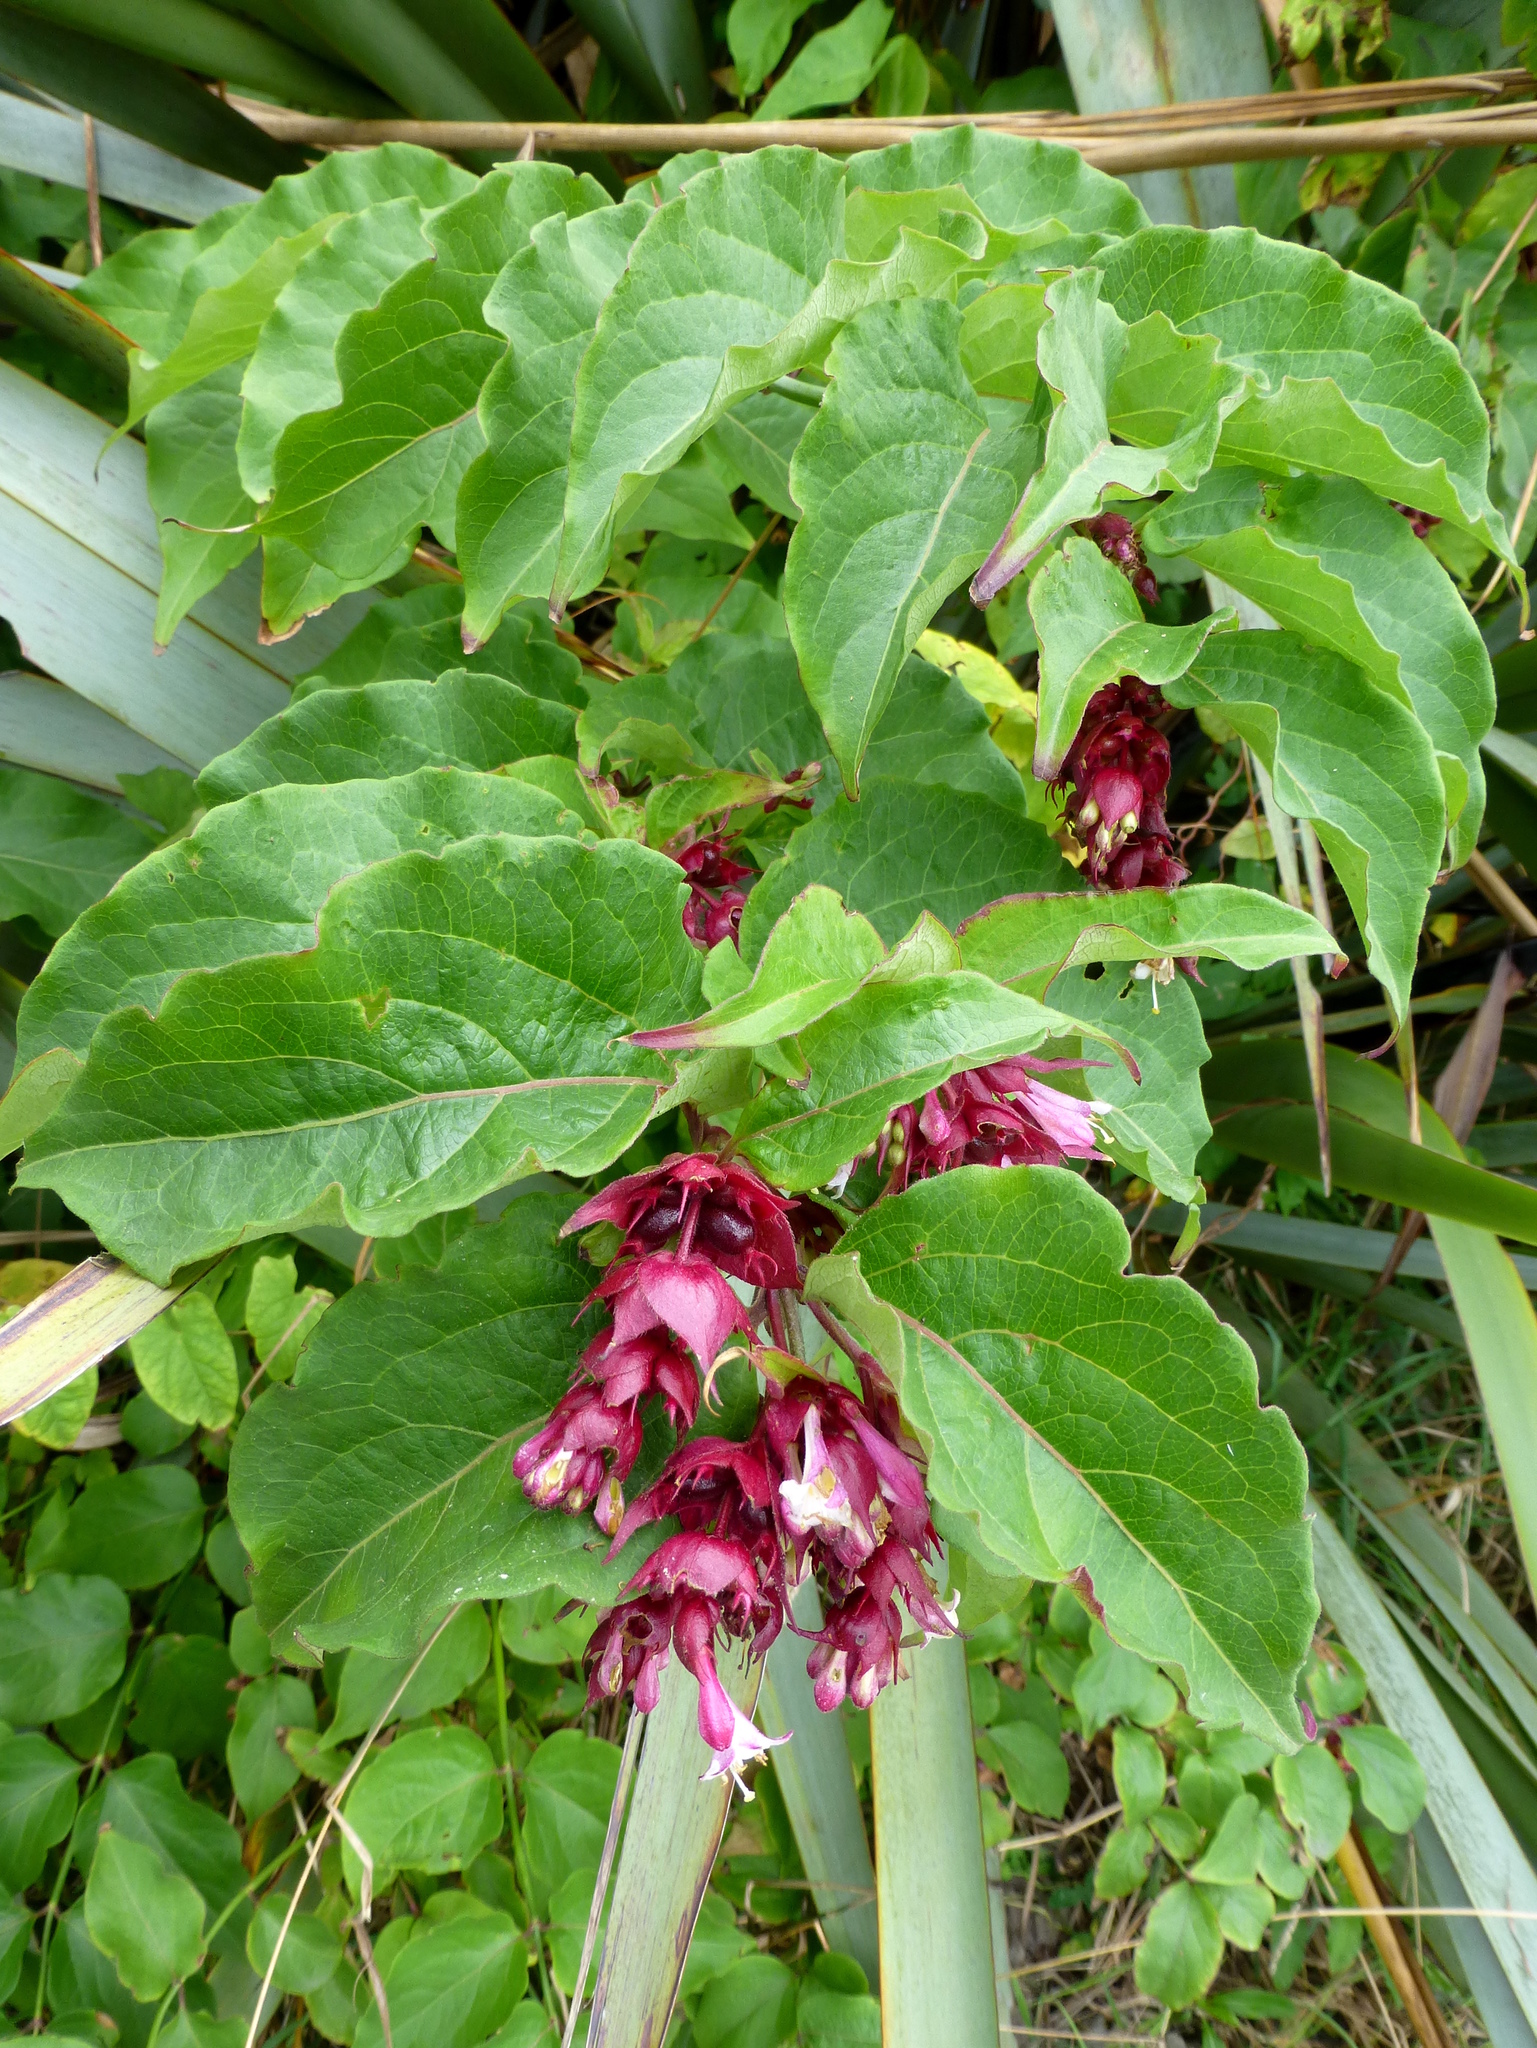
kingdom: Plantae
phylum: Tracheophyta
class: Magnoliopsida
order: Dipsacales
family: Caprifoliaceae
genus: Leycesteria
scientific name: Leycesteria formosa
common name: Himalayan honeysuckle
